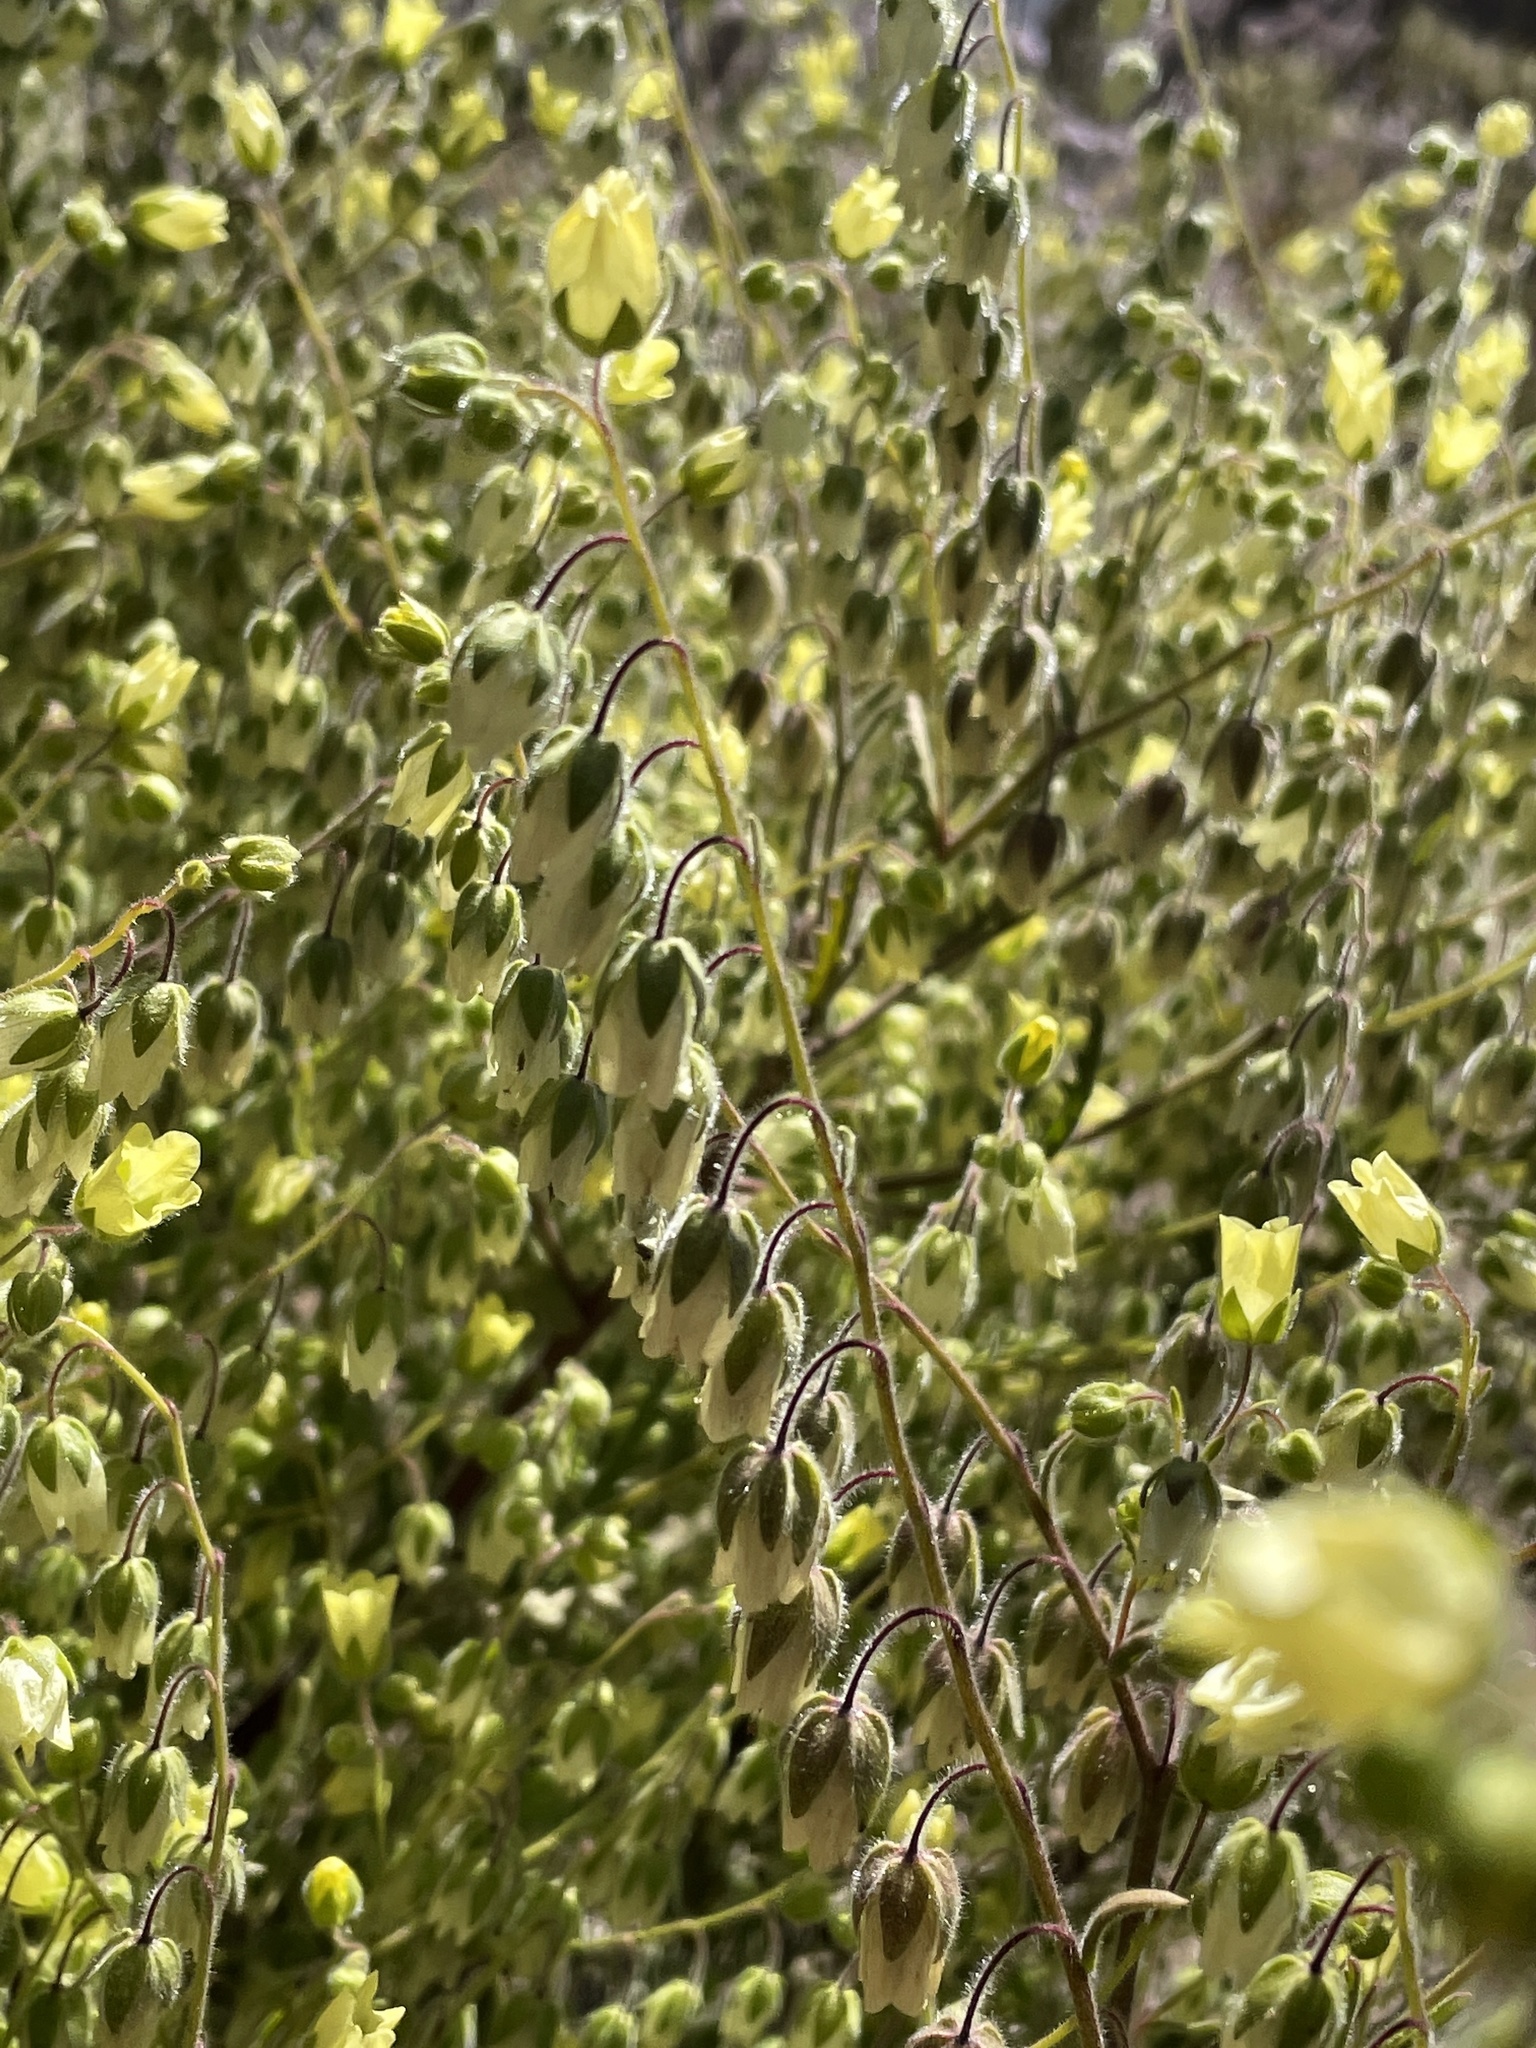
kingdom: Plantae
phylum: Tracheophyta
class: Magnoliopsida
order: Boraginales
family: Hydrophyllaceae
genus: Emmenanthe
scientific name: Emmenanthe penduliflora
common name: Whispering-bells
